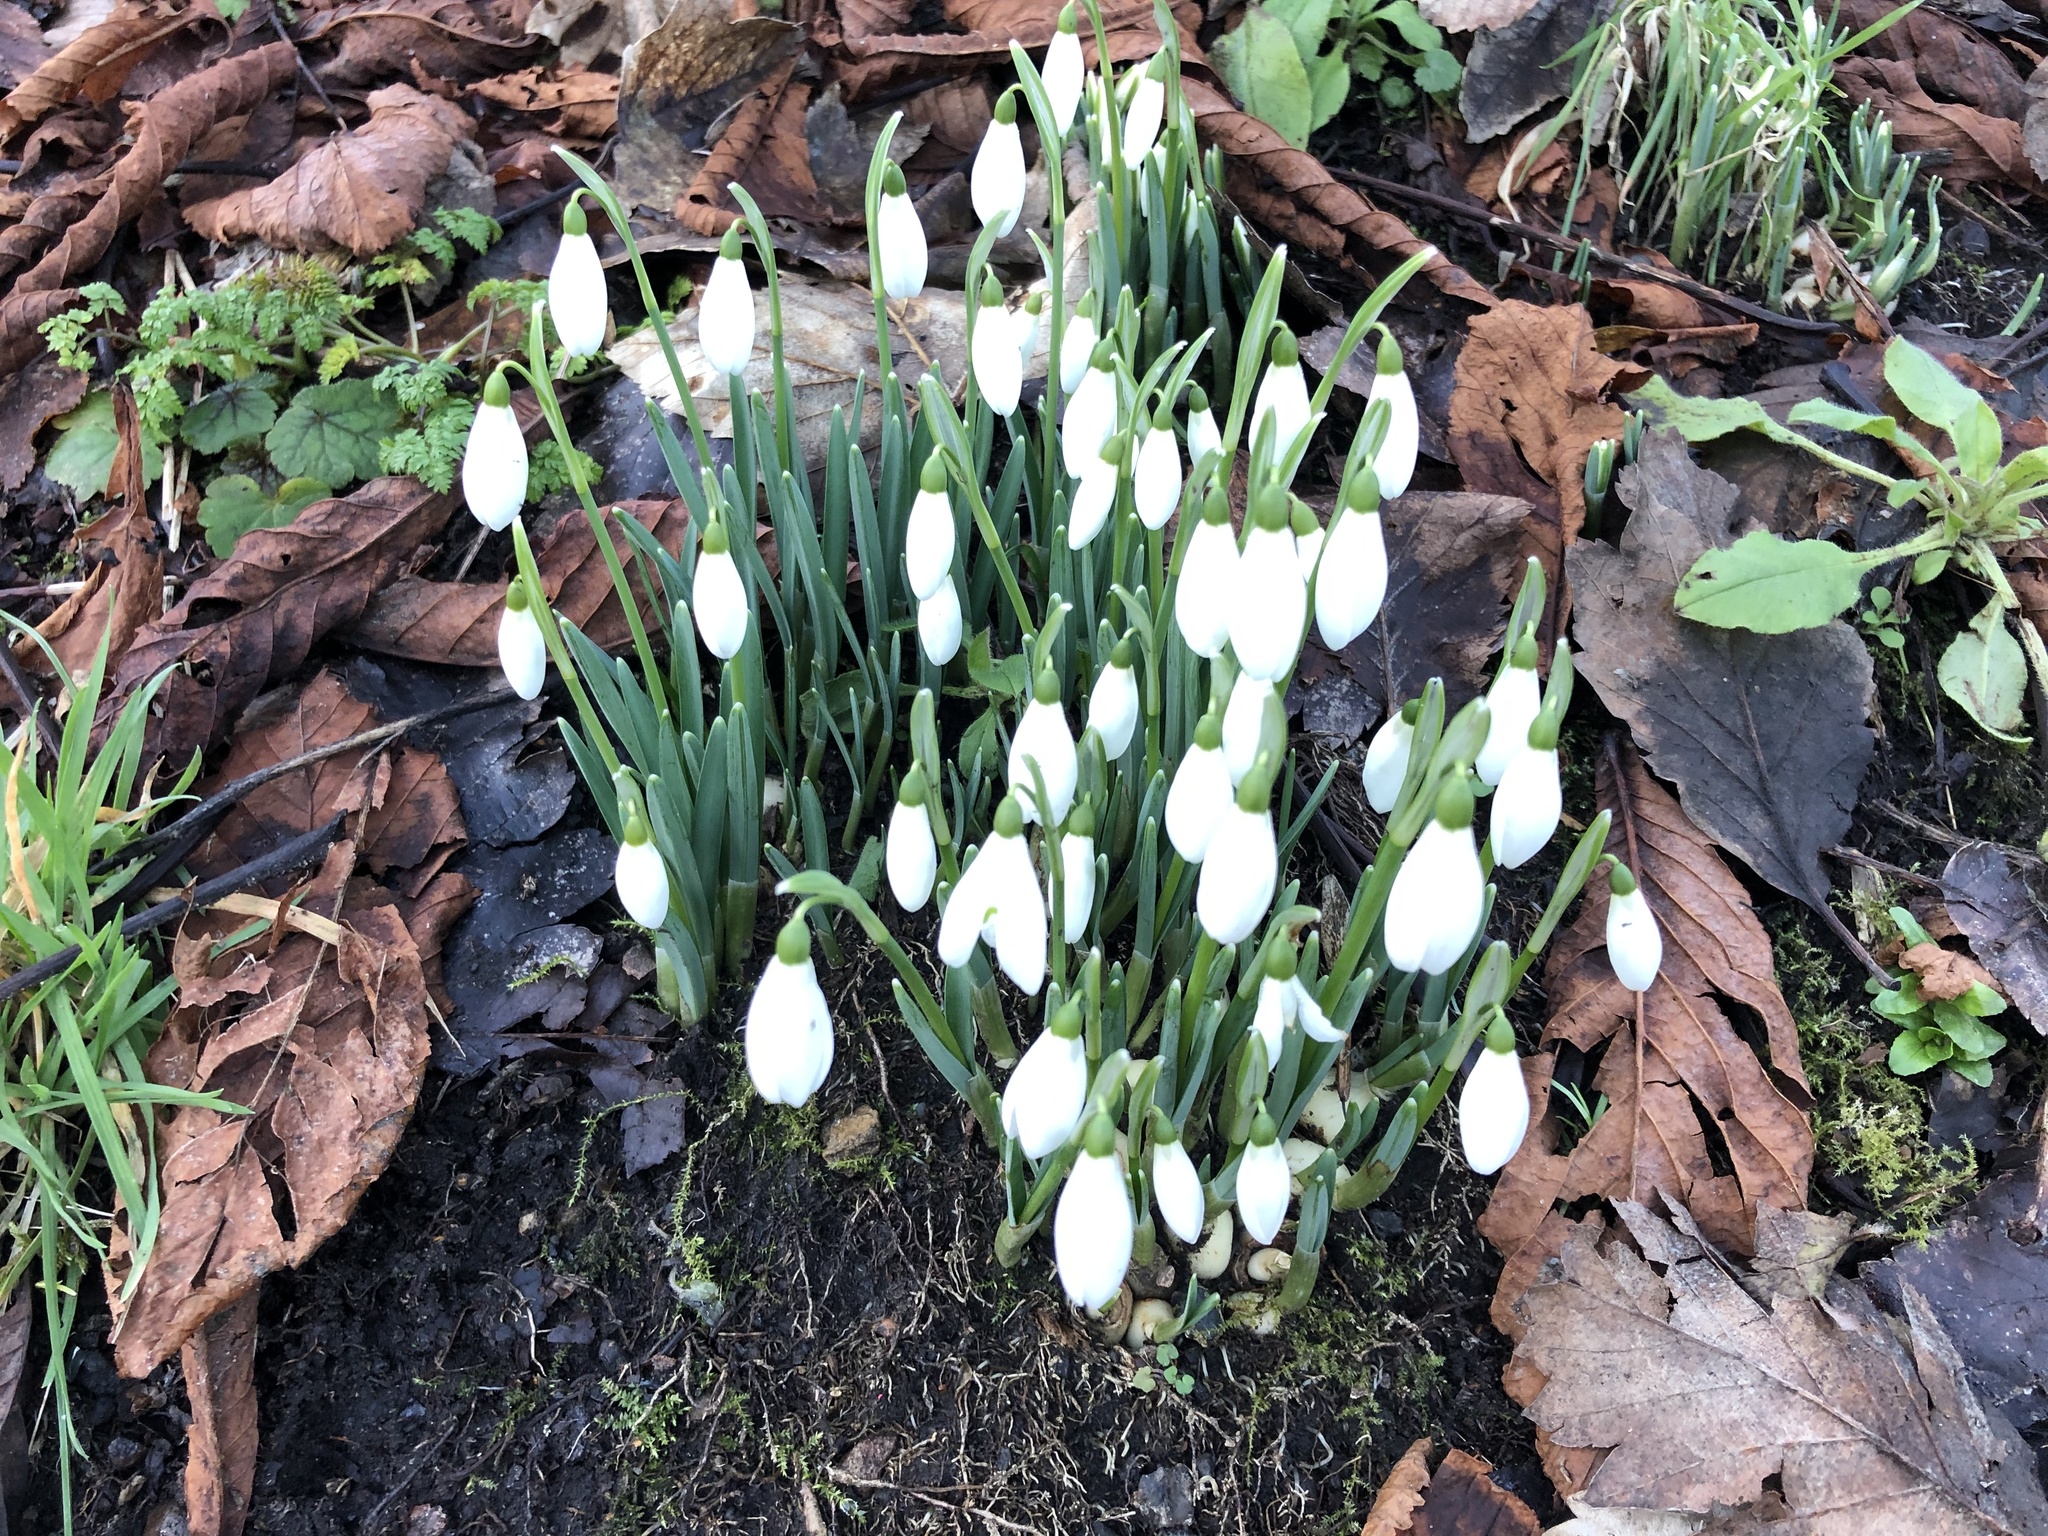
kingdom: Plantae
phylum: Tracheophyta
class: Liliopsida
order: Asparagales
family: Amaryllidaceae
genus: Galanthus
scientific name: Galanthus nivalis
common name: Snowdrop
